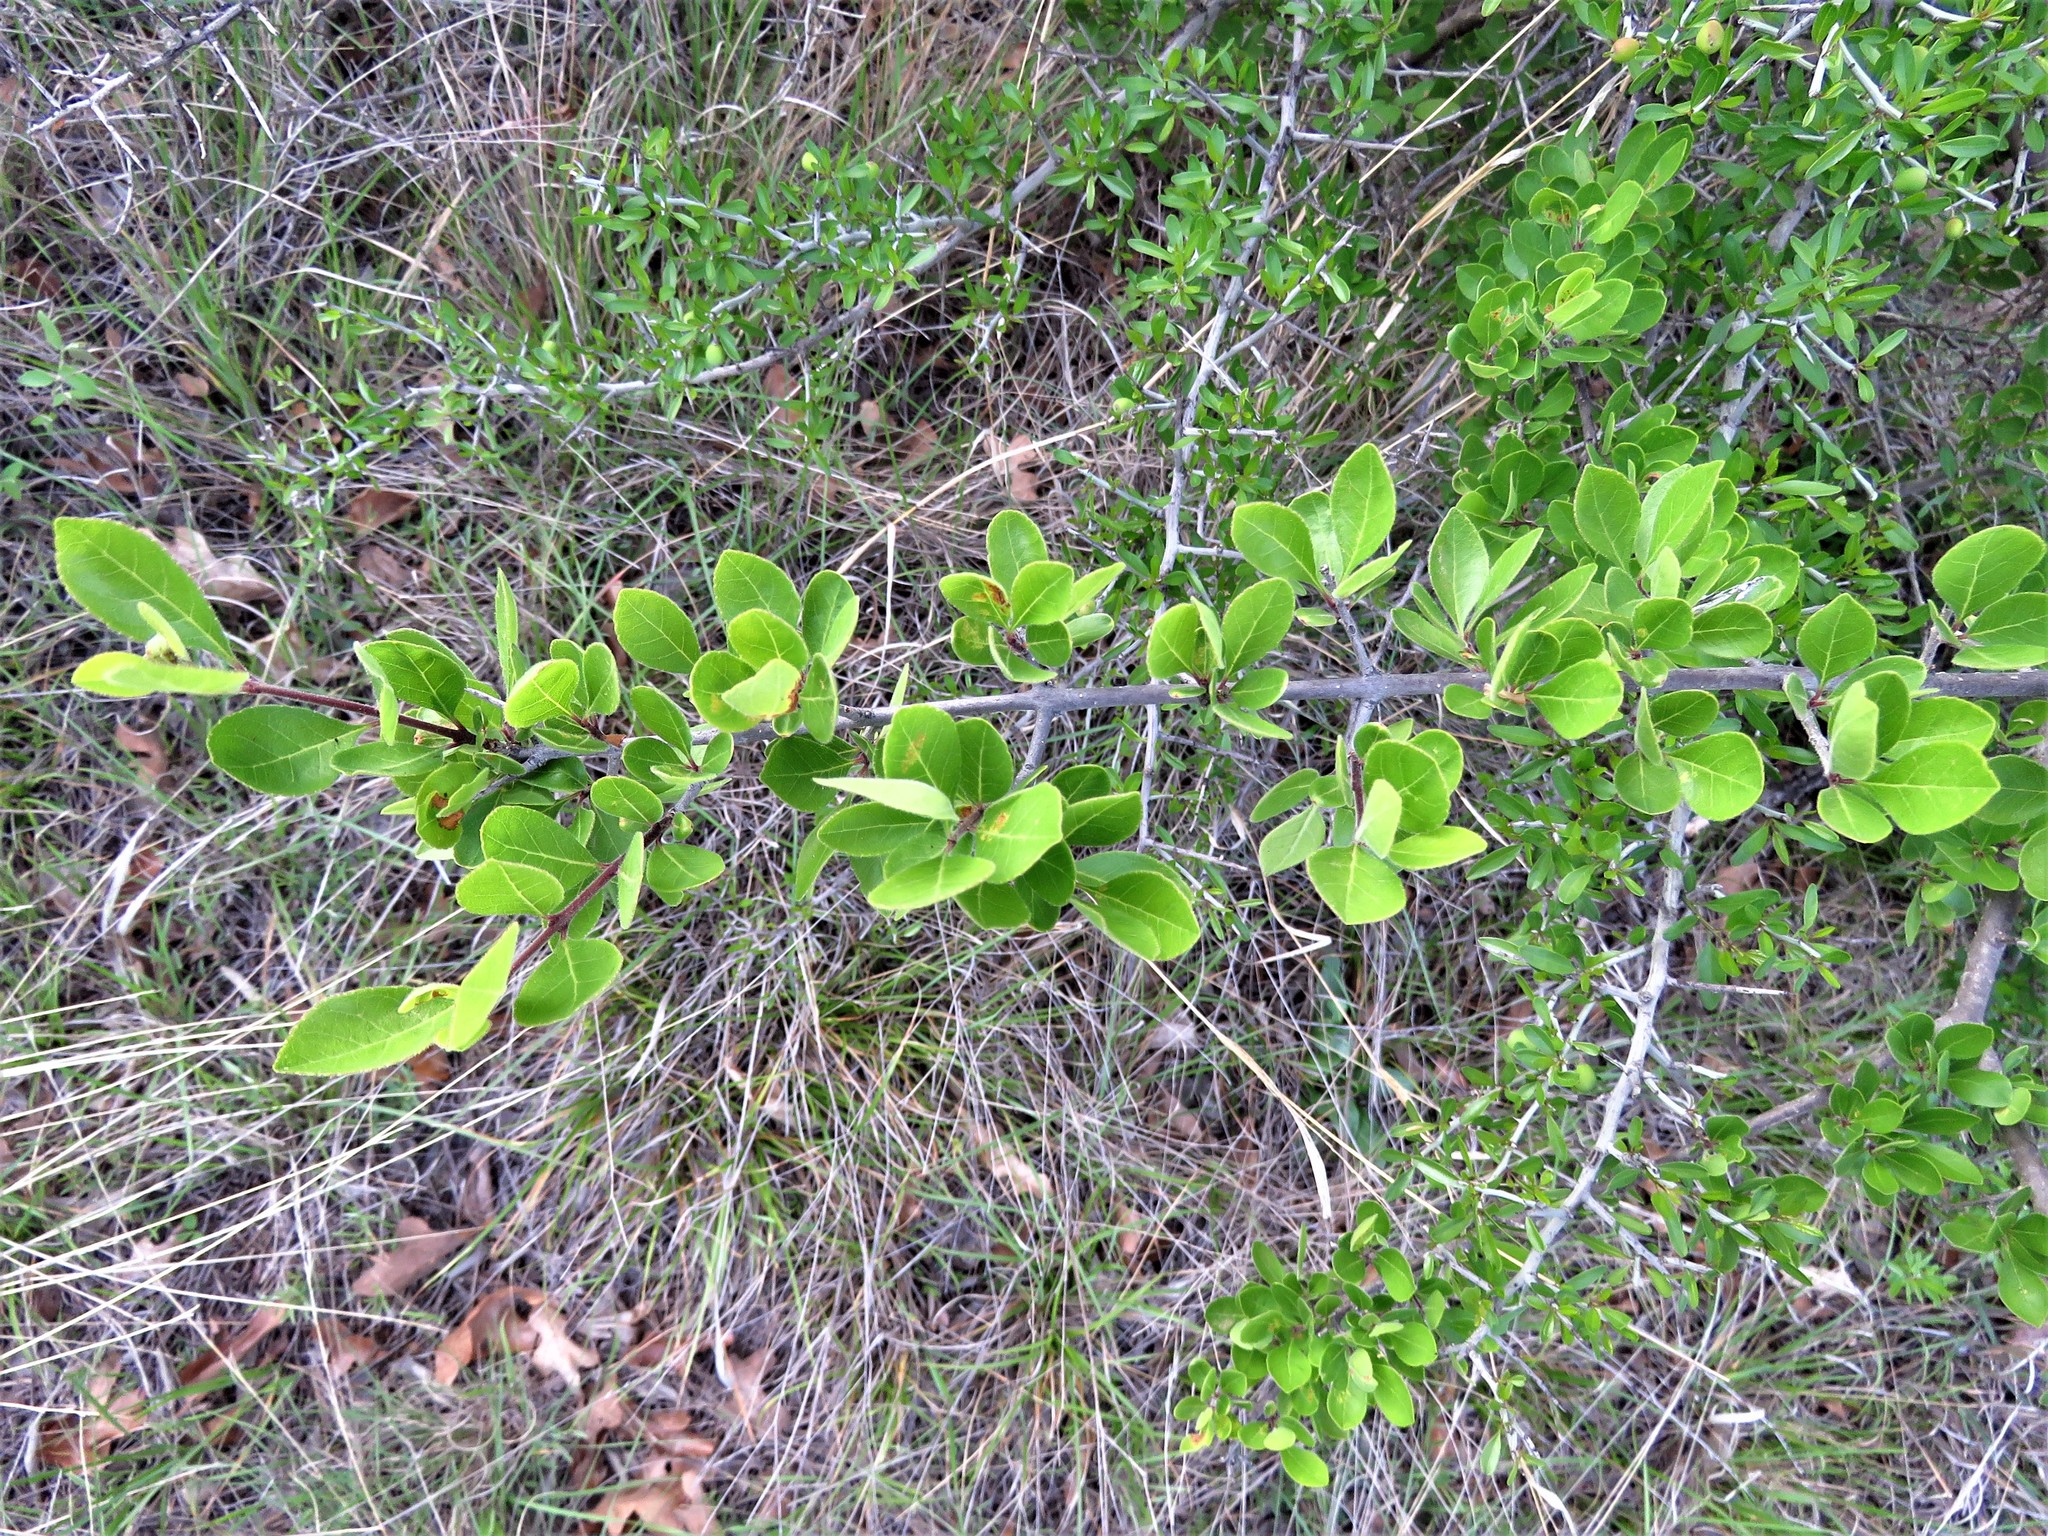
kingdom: Plantae
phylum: Tracheophyta
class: Magnoliopsida
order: Lamiales
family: Oleaceae
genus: Forestiera
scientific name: Forestiera pubescens
